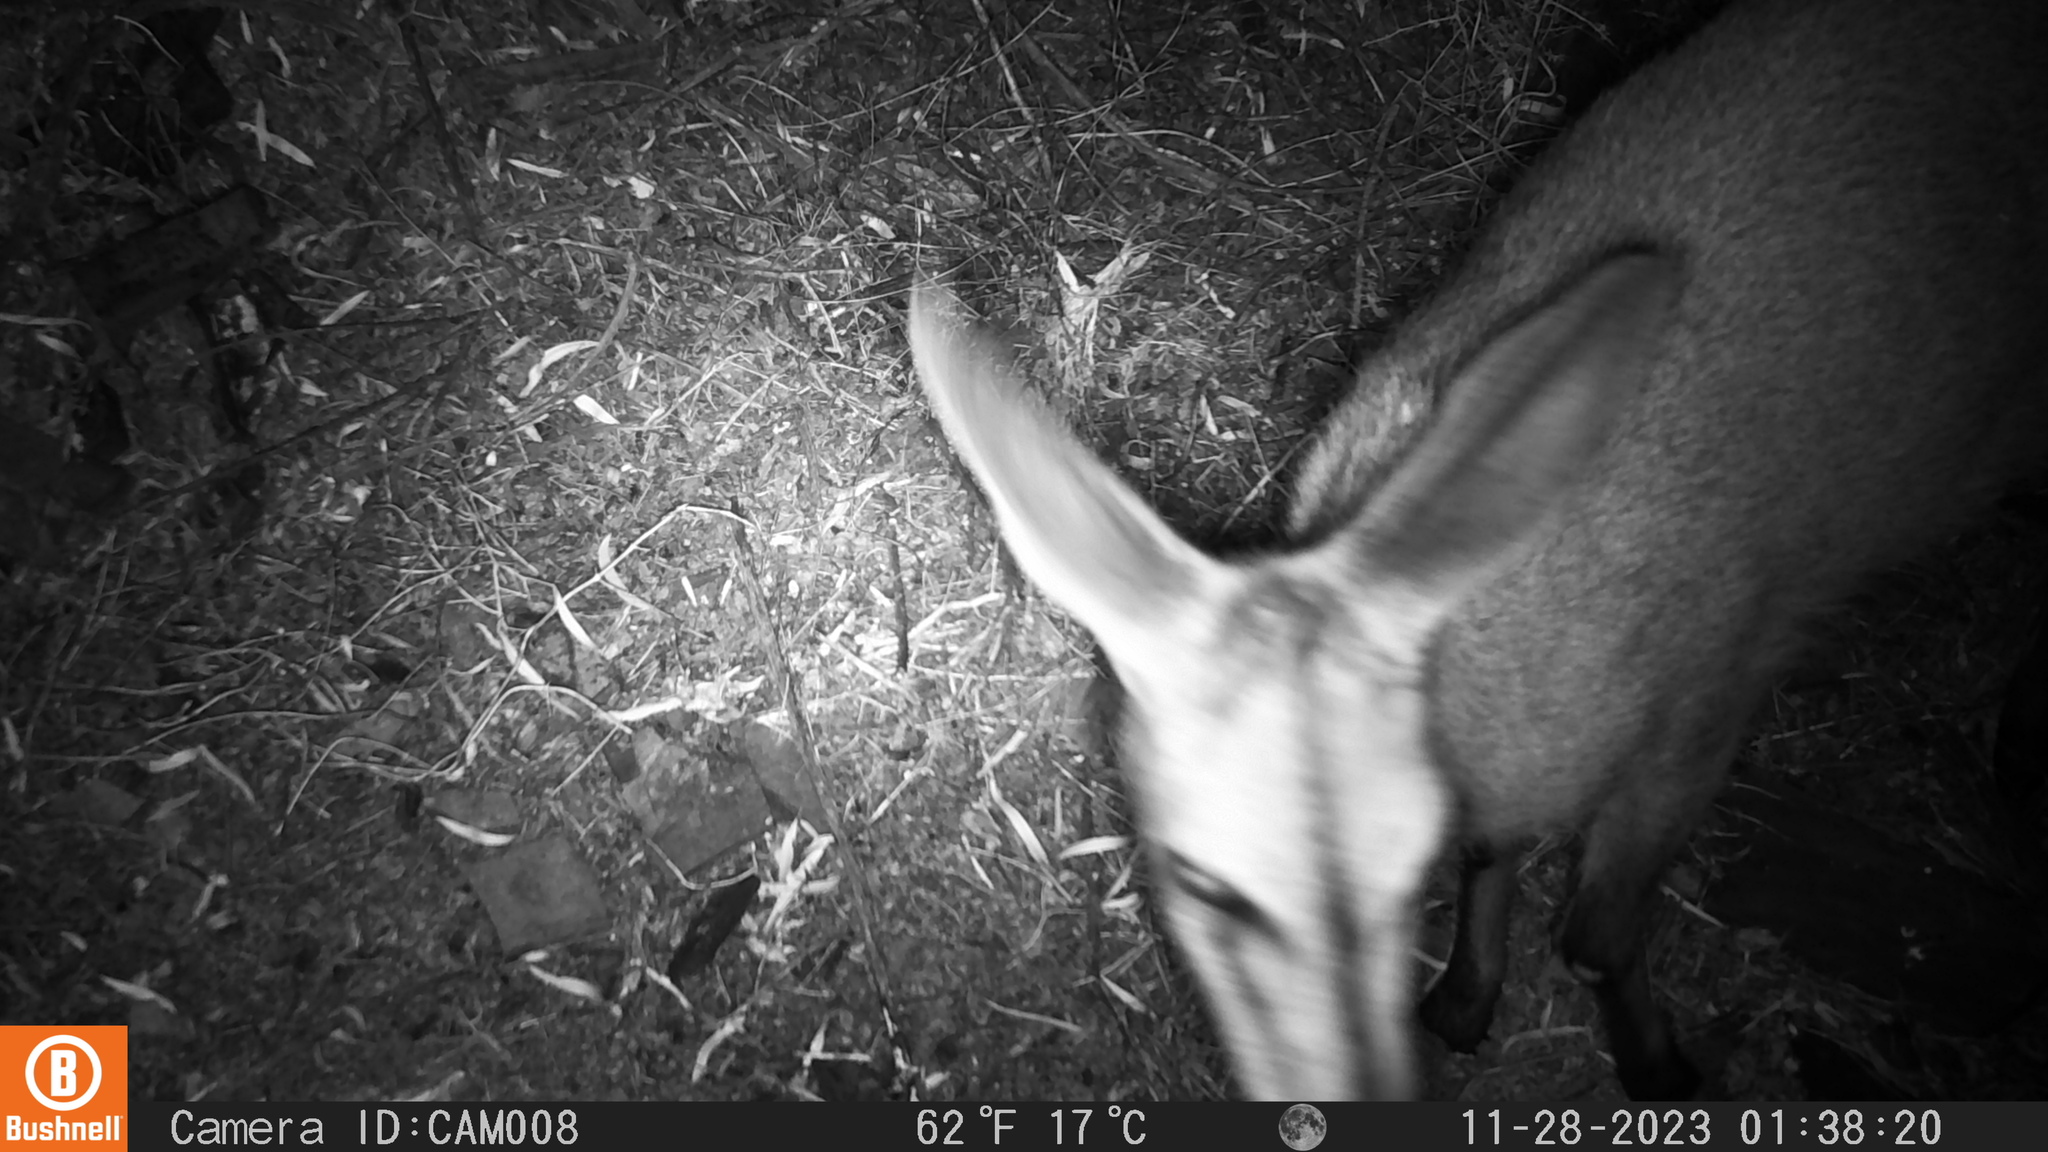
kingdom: Animalia
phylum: Chordata
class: Mammalia
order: Artiodactyla
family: Bovidae
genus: Sylvicapra
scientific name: Sylvicapra grimmia
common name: Bush duiker
